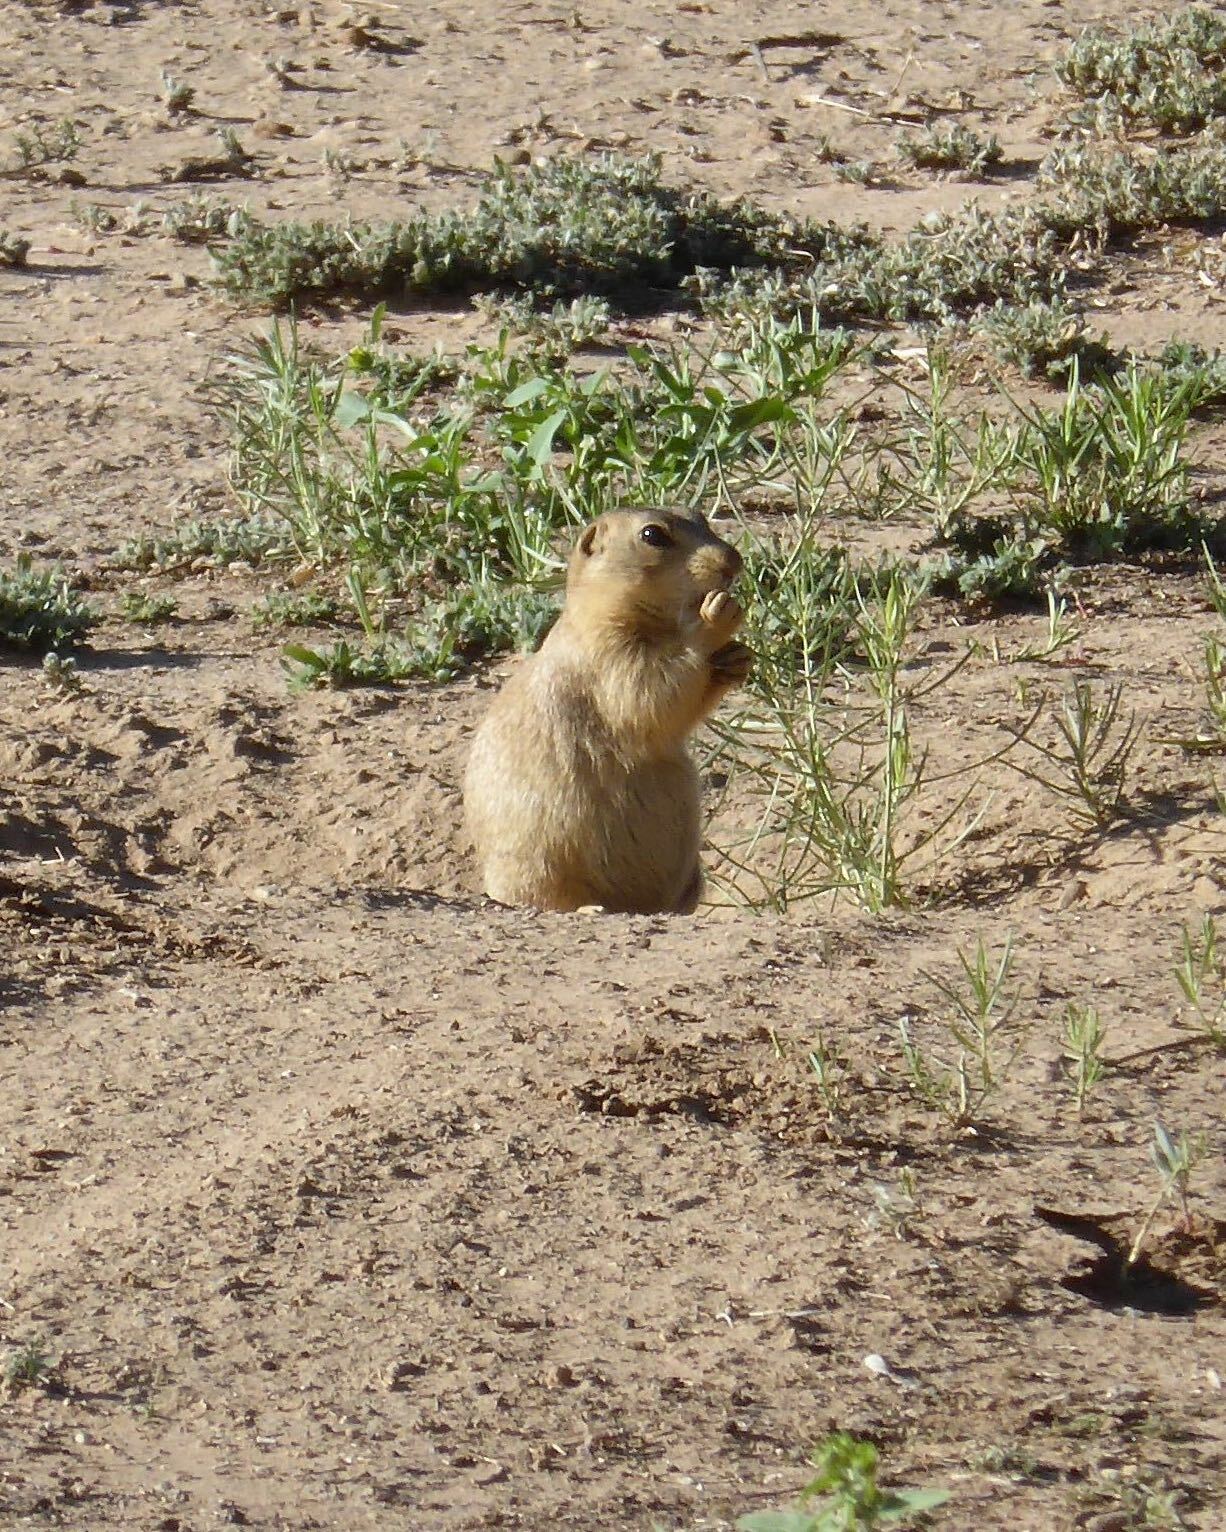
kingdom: Animalia
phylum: Chordata
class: Mammalia
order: Rodentia
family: Sciuridae
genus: Cynomys
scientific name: Cynomys gunnisoni
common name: Gunnison's prairie dog
